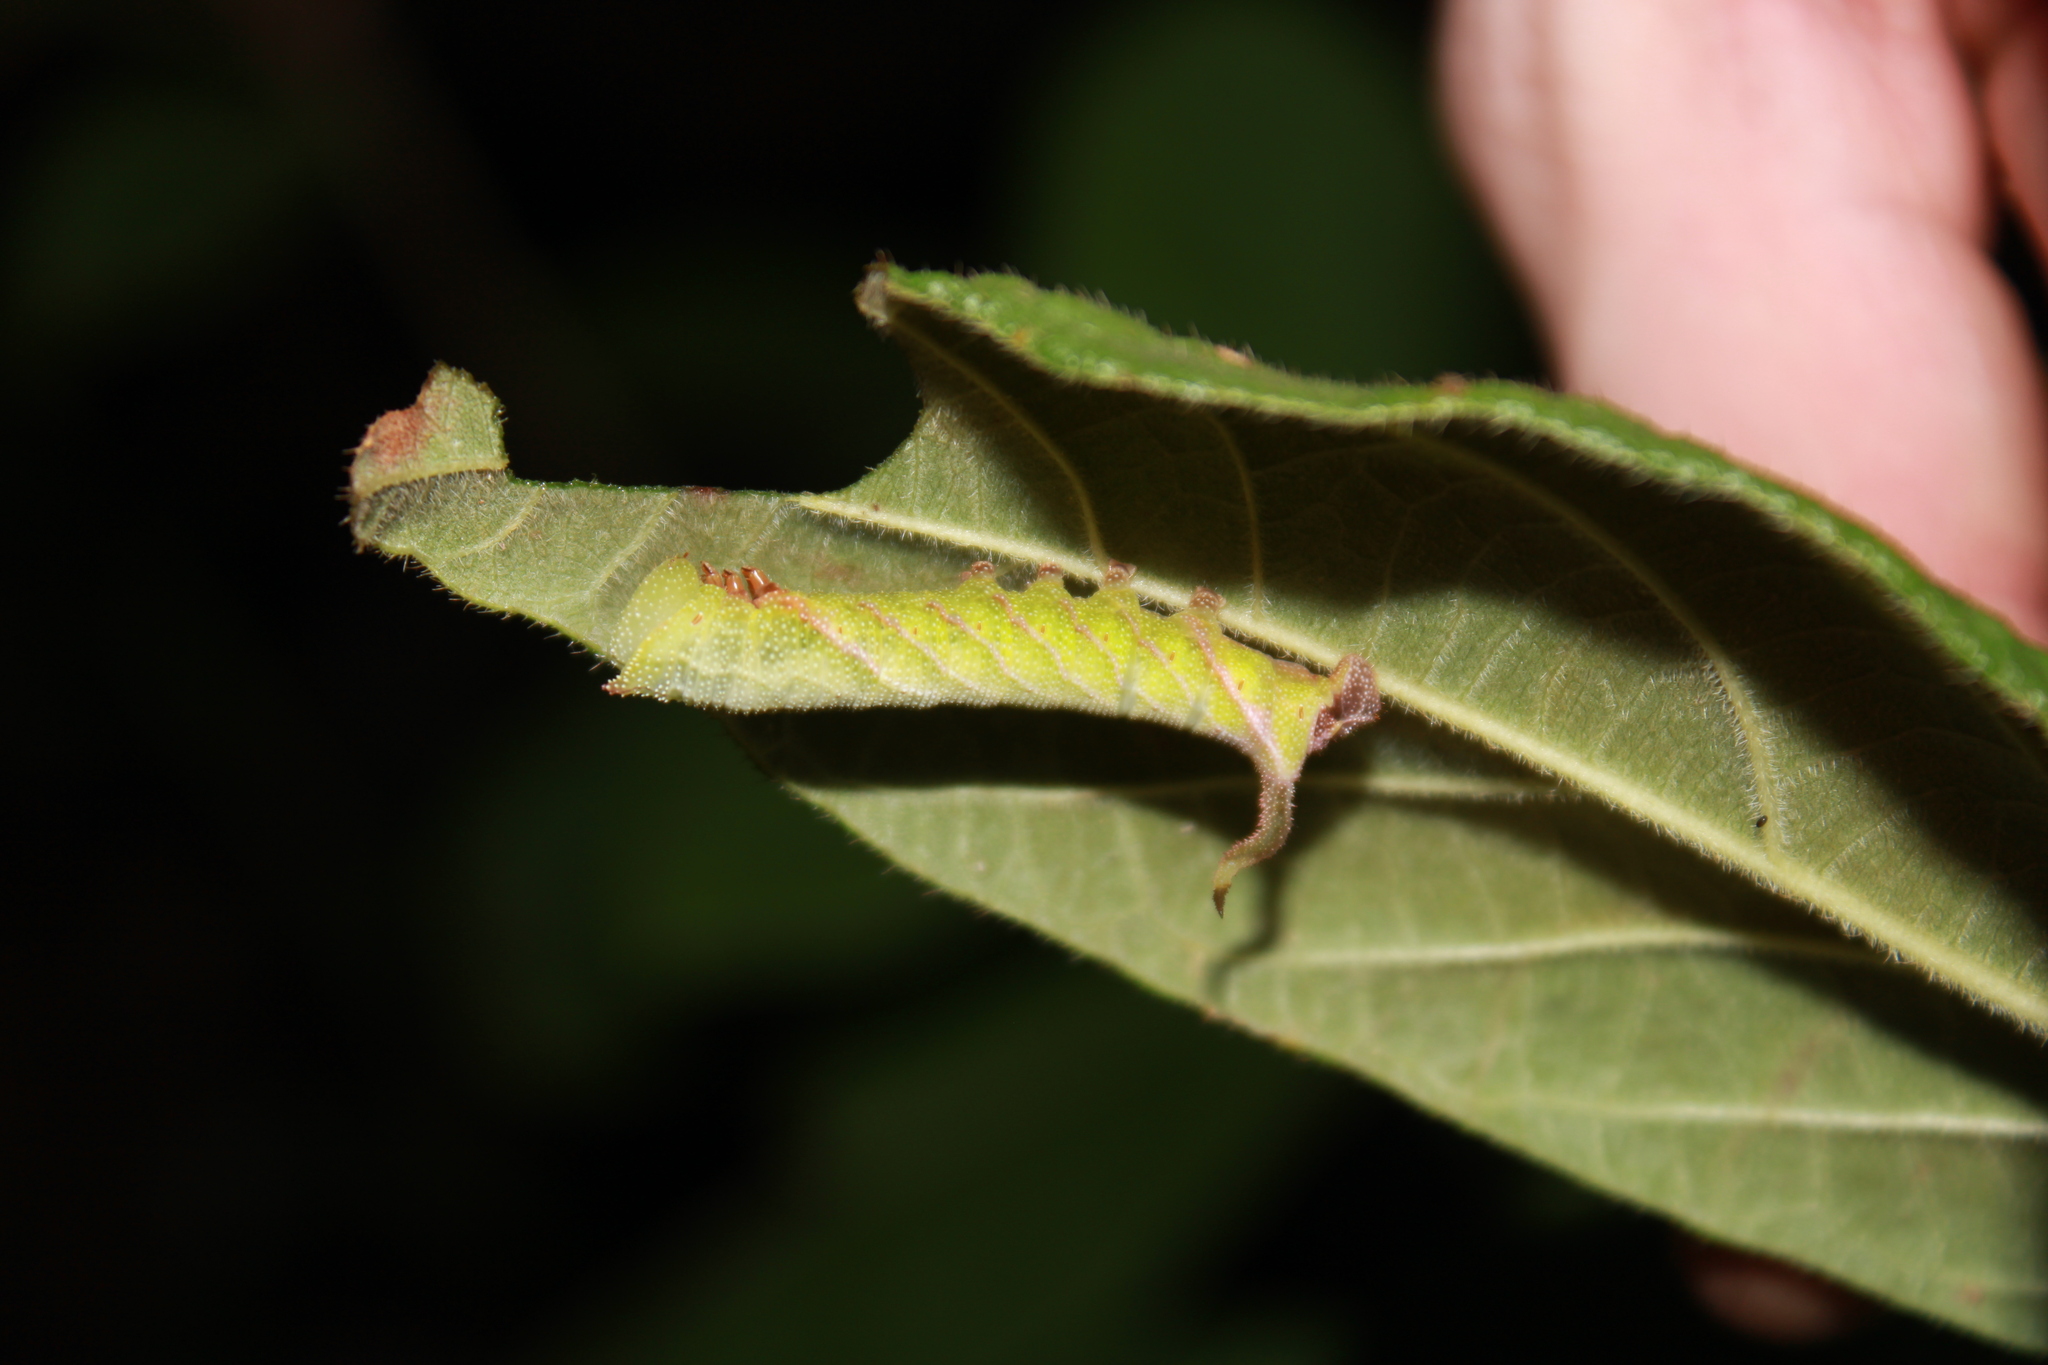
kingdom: Animalia
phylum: Arthropoda
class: Insecta
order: Lepidoptera
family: Sphingidae
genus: Eupyrrhoglossum
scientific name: Eupyrrhoglossum sagra
